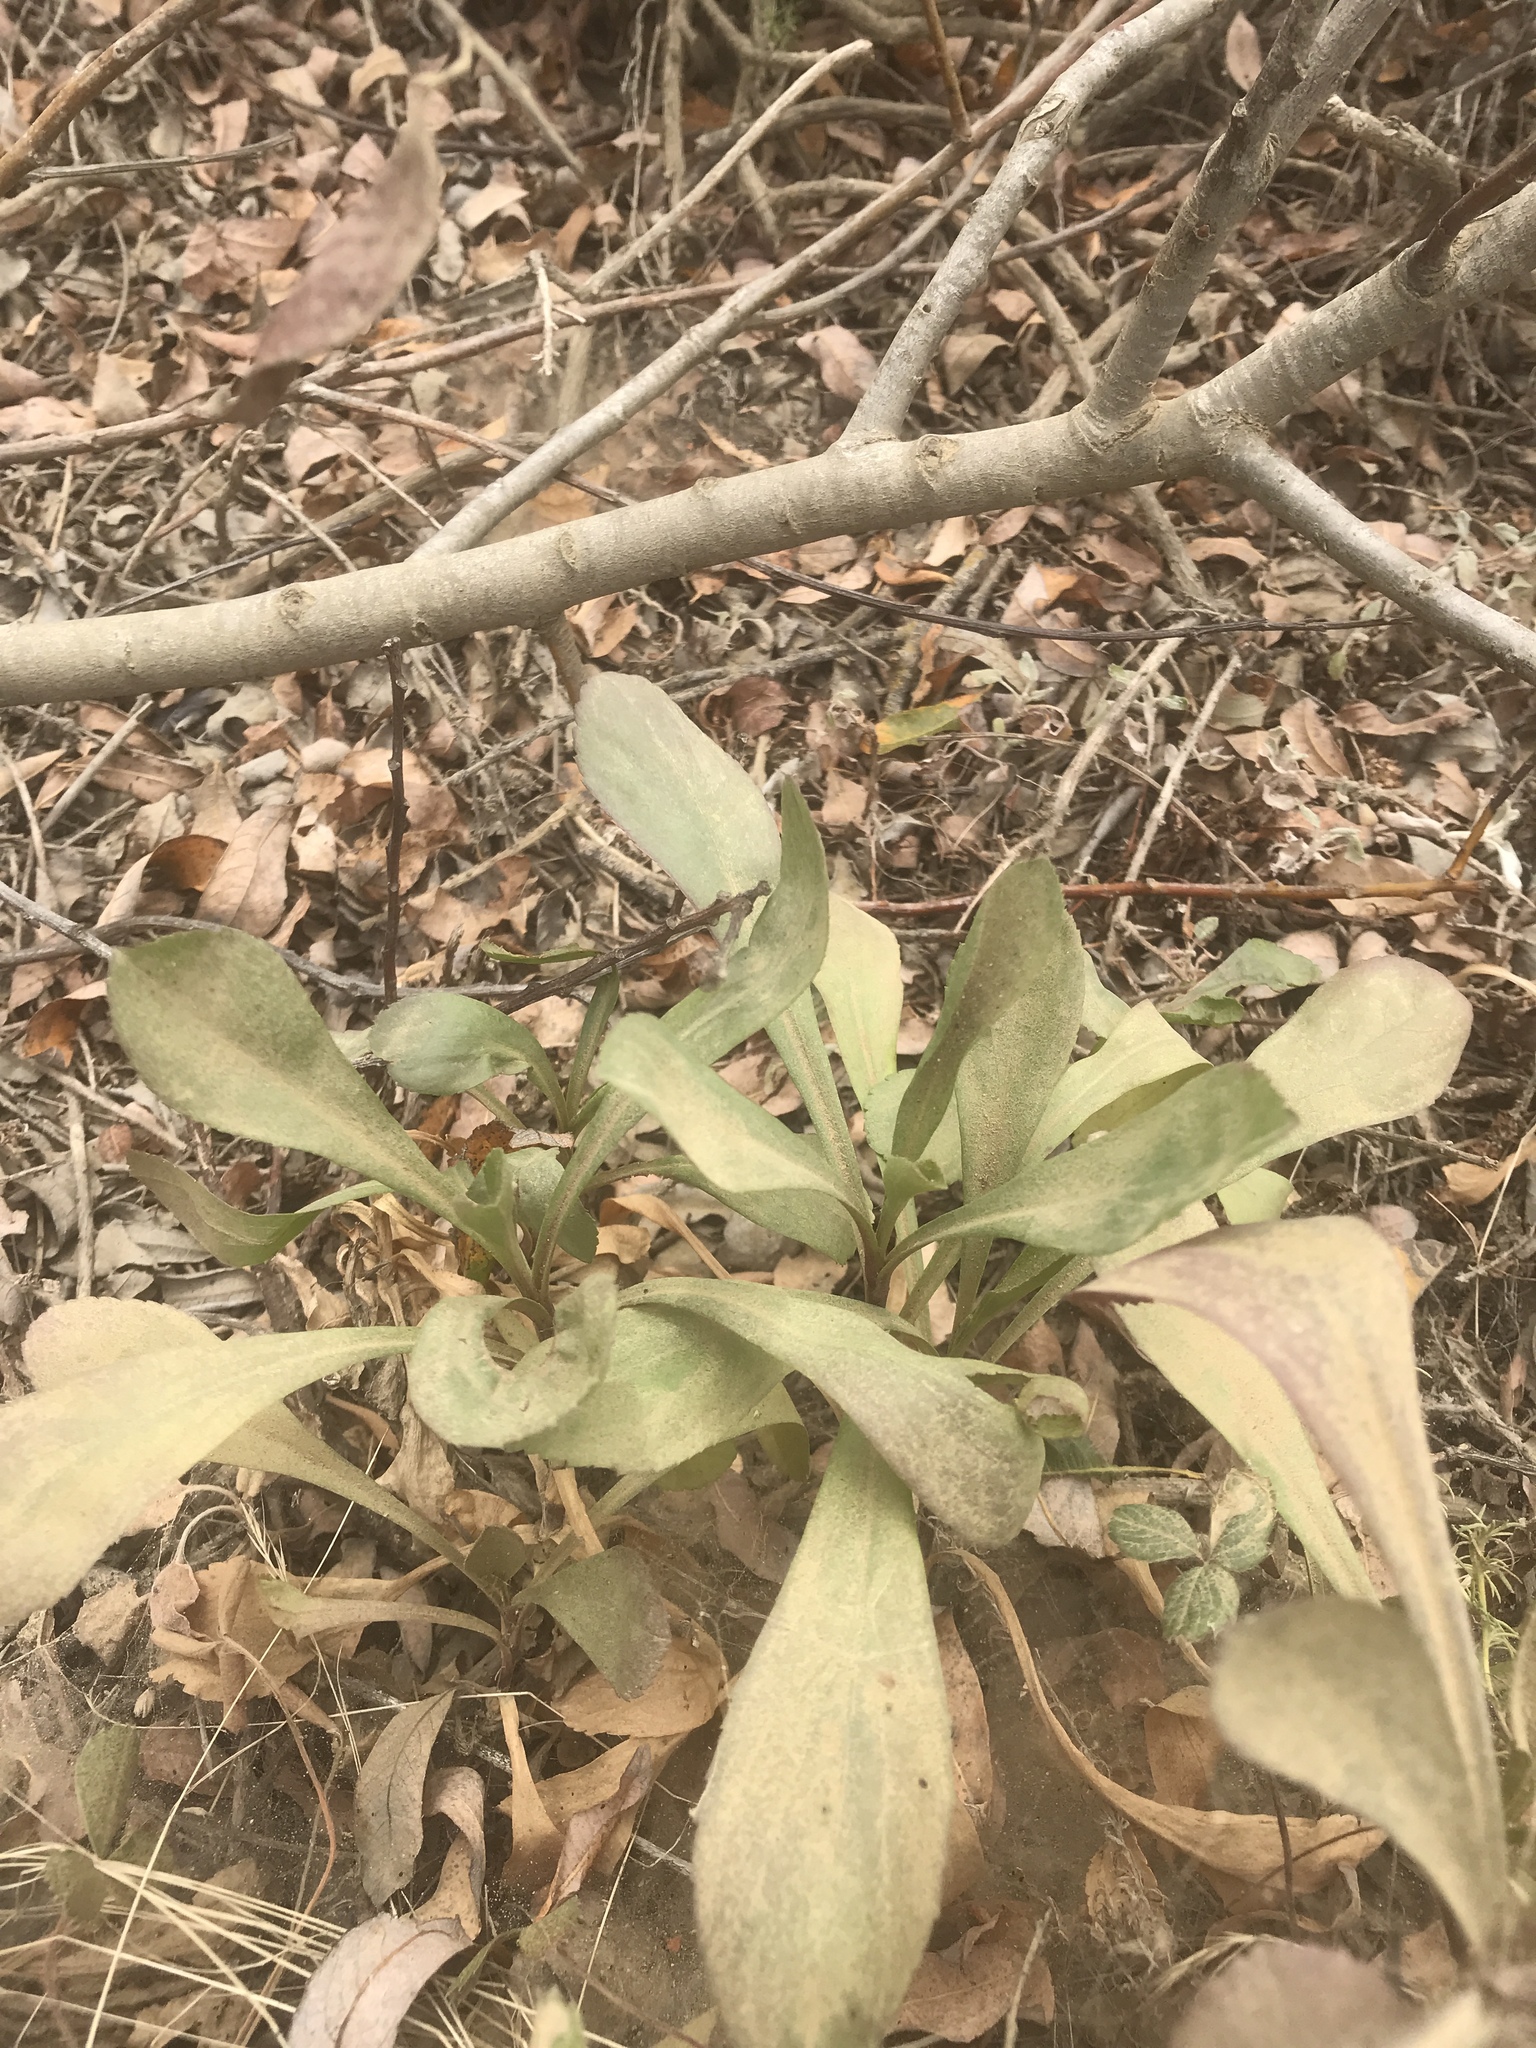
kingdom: Plantae
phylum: Tracheophyta
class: Magnoliopsida
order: Asterales
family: Asteraceae
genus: Solidago
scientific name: Solidago spathulata
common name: Coast goldenrod
